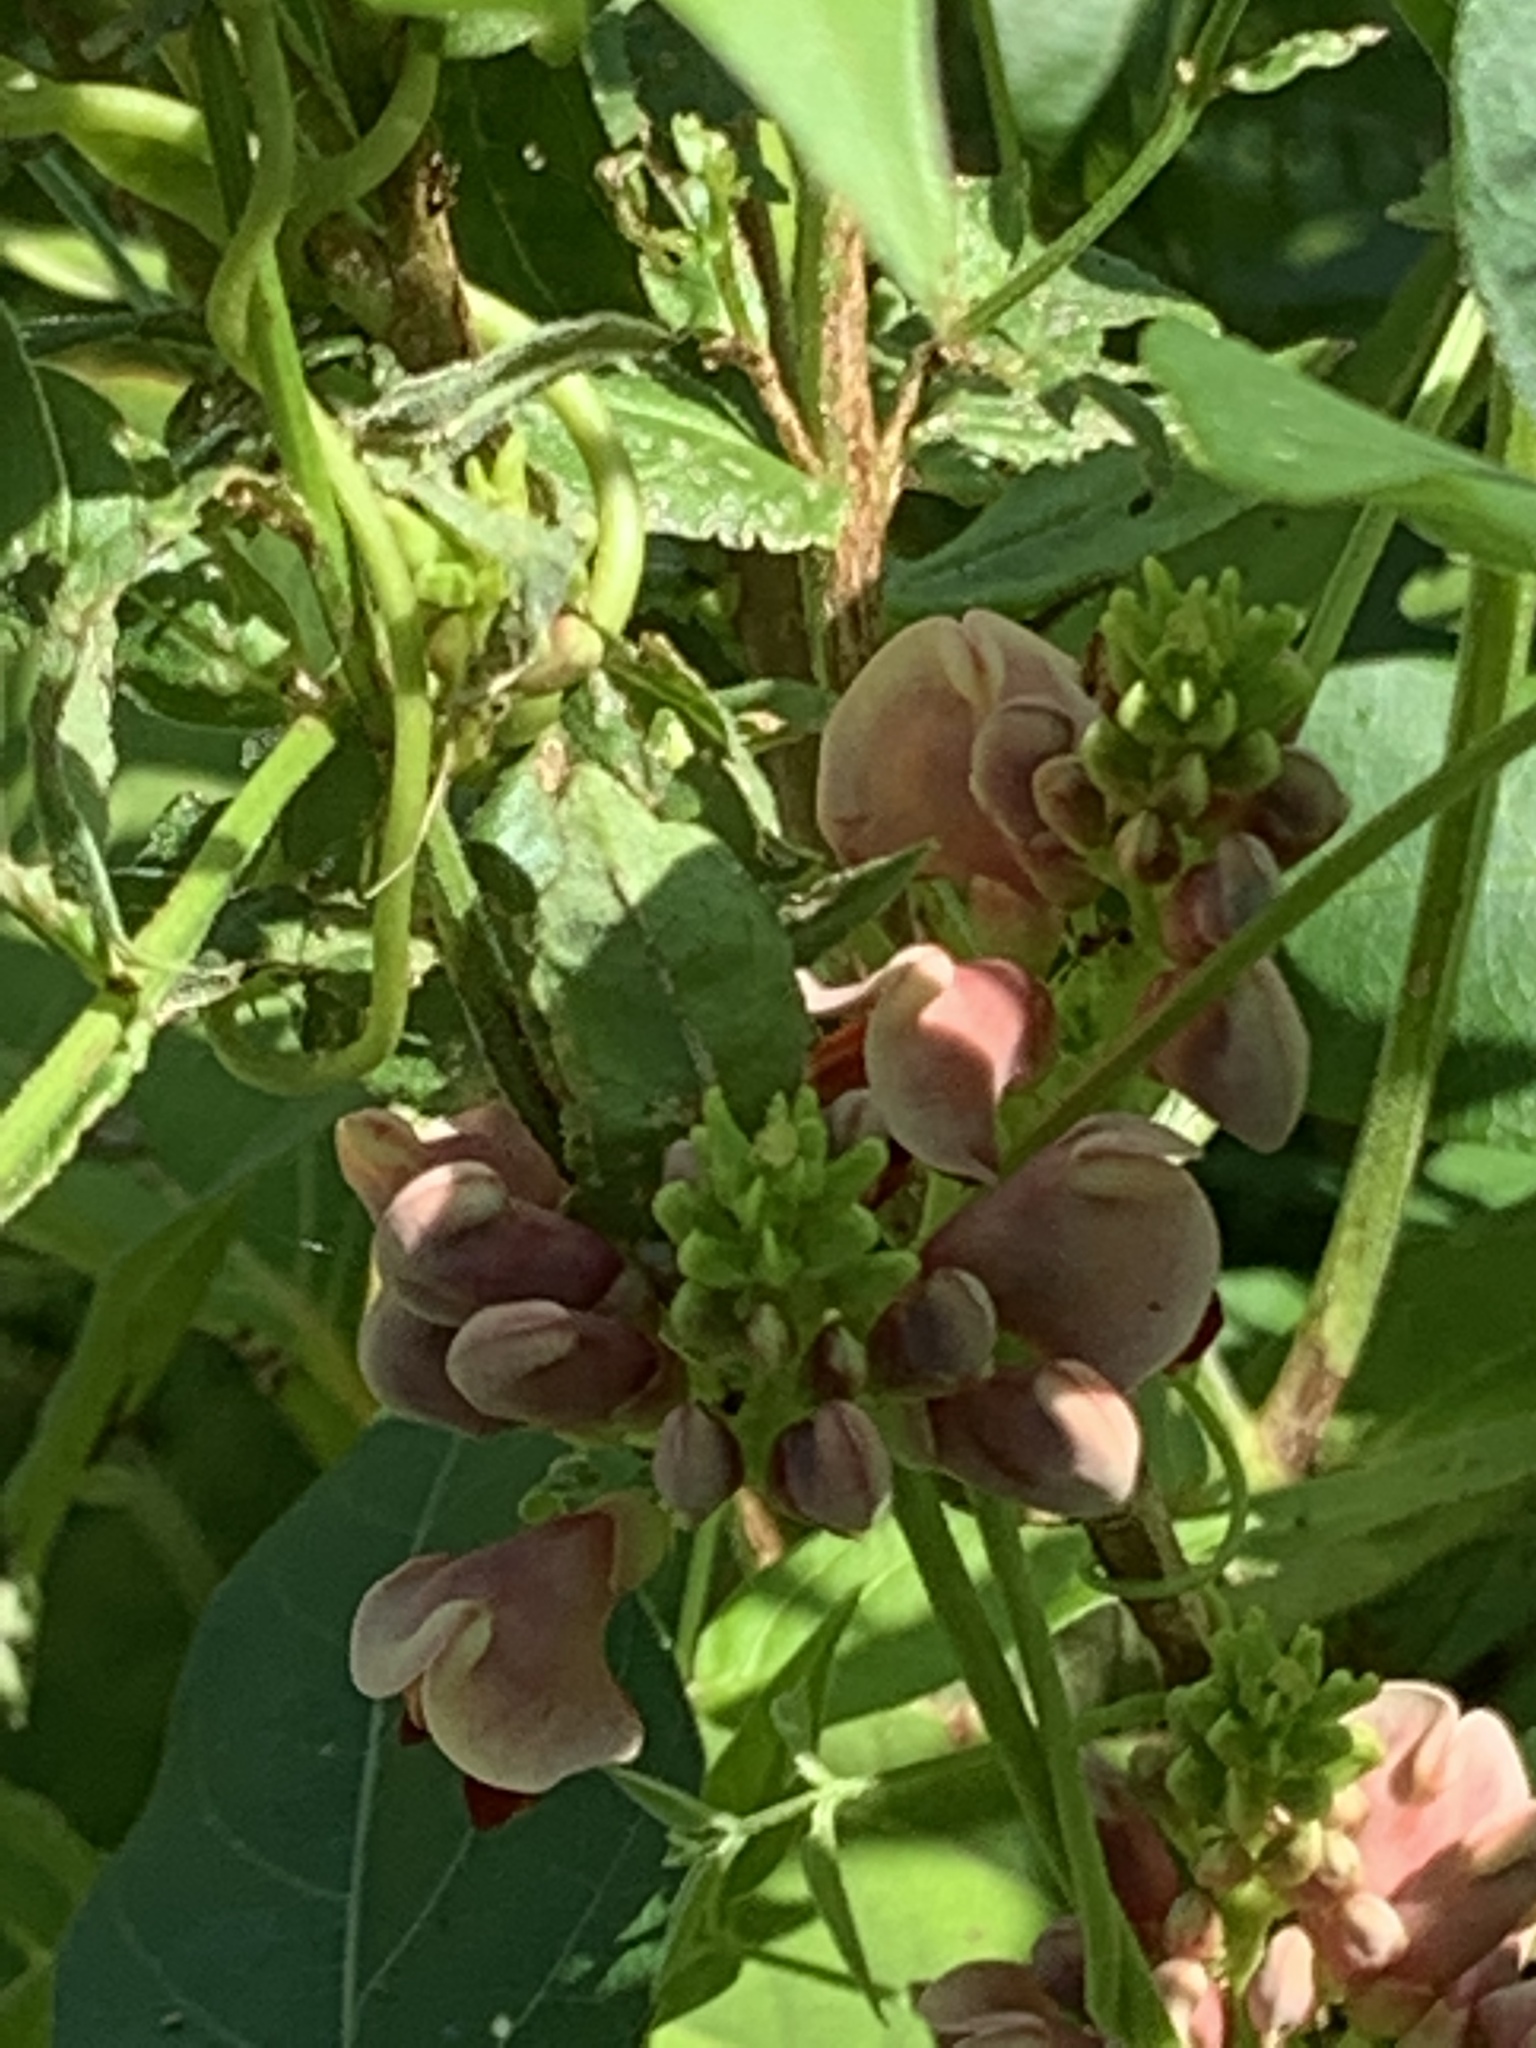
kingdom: Plantae
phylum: Tracheophyta
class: Magnoliopsida
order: Fabales
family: Fabaceae
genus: Apios
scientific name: Apios americana
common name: American potato-bean
